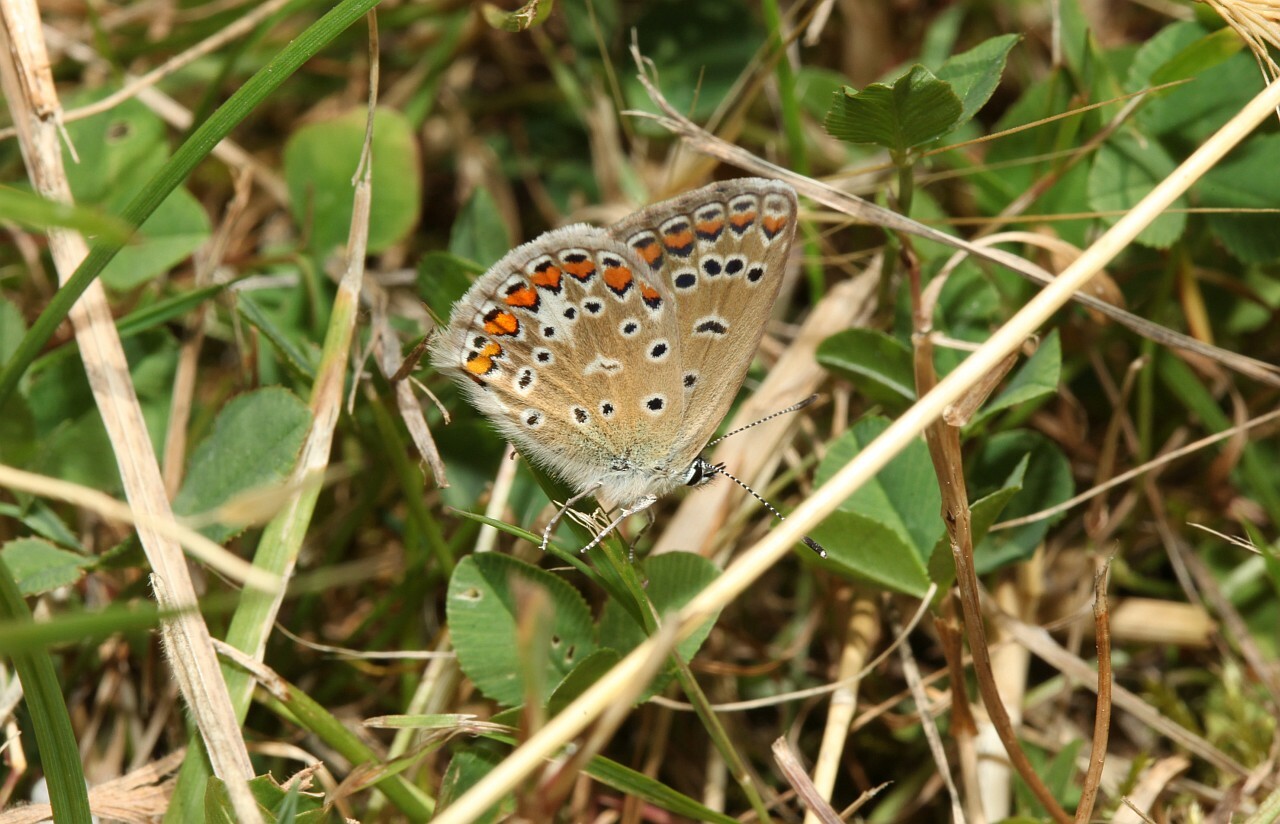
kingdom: Animalia
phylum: Arthropoda
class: Insecta
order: Lepidoptera
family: Lycaenidae
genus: Polyommatus
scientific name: Polyommatus icarus
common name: Common blue
